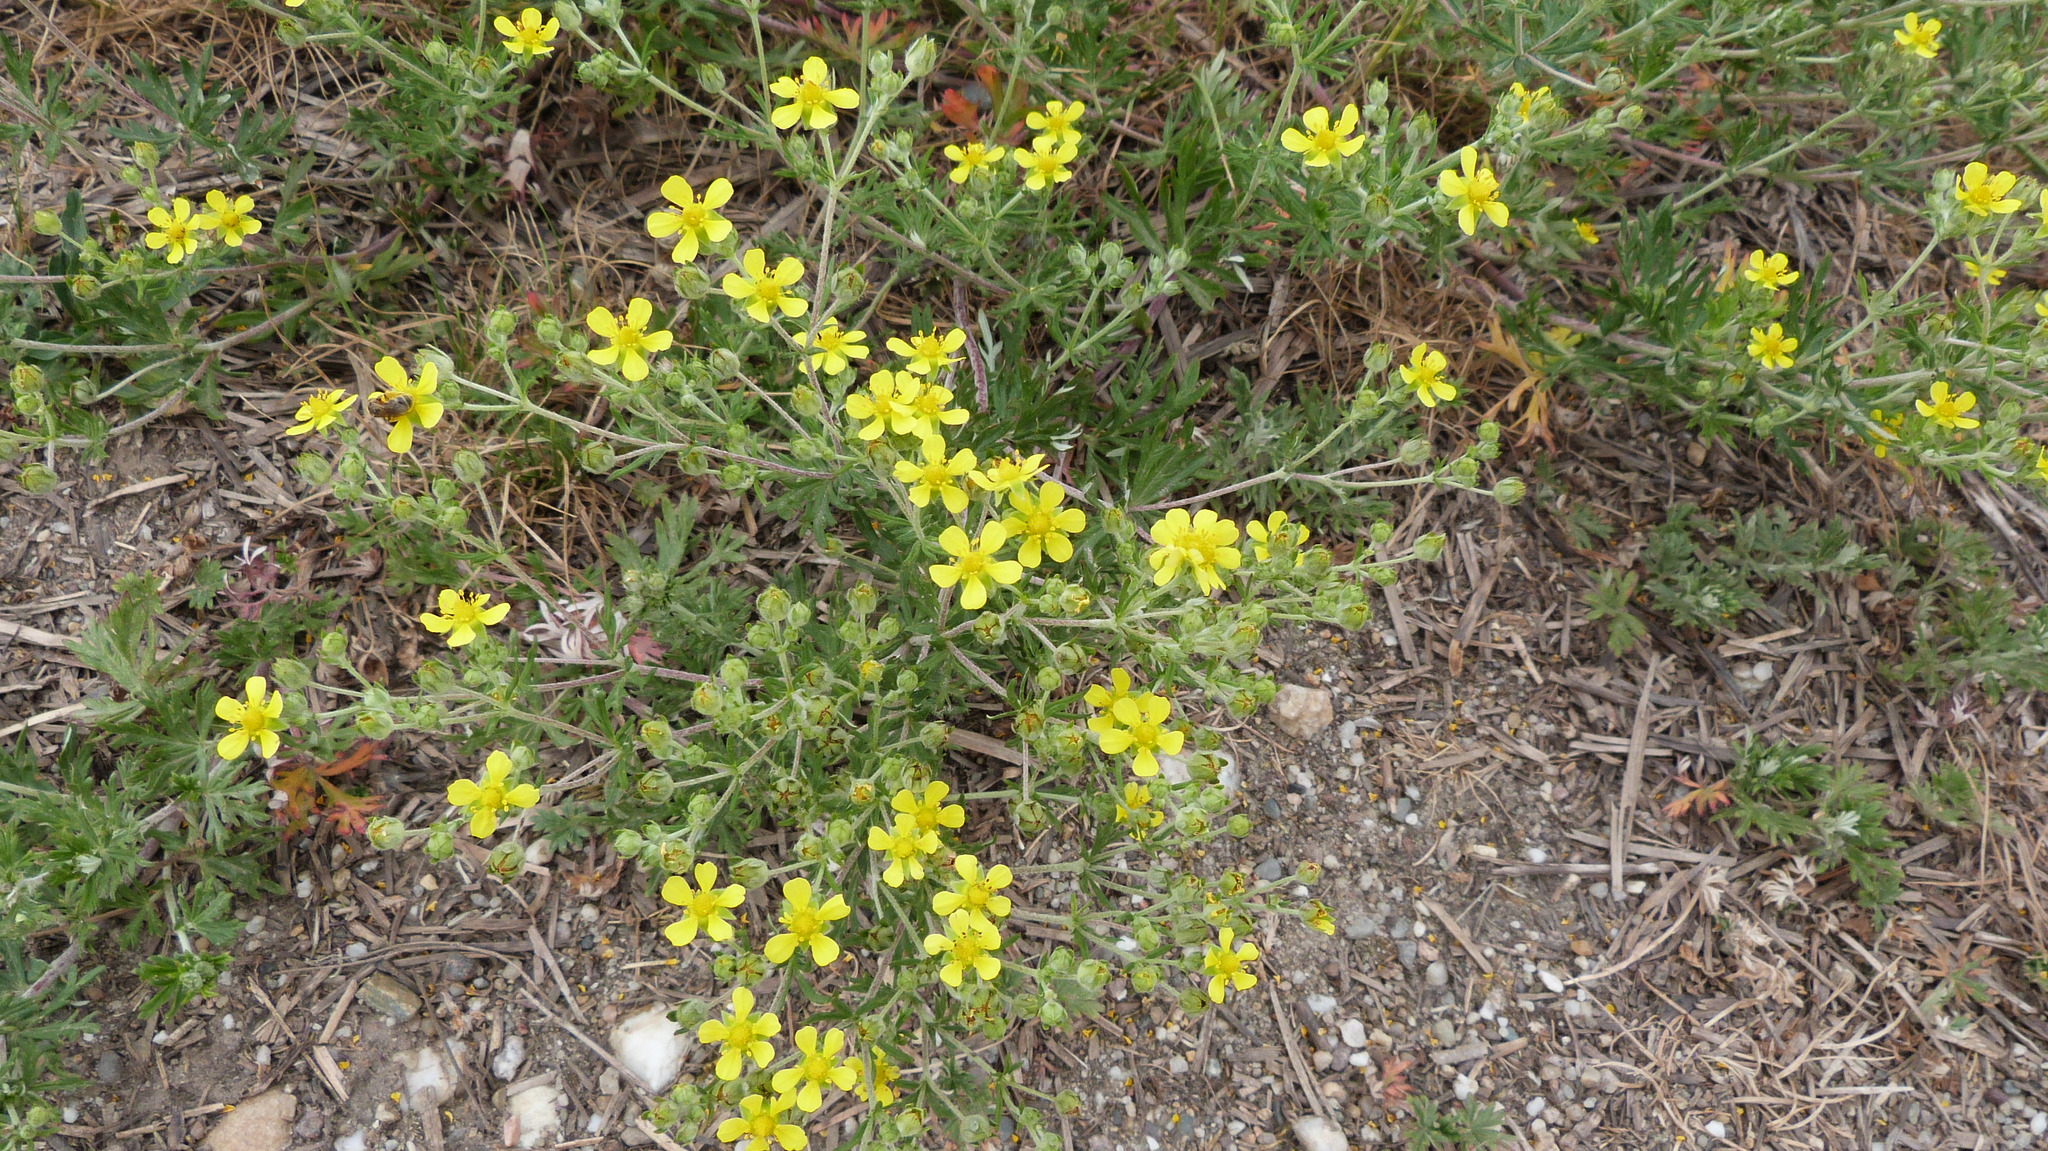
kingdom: Plantae
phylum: Tracheophyta
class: Magnoliopsida
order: Rosales
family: Rosaceae
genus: Potentilla
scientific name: Potentilla argentea
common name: Hoary cinquefoil
